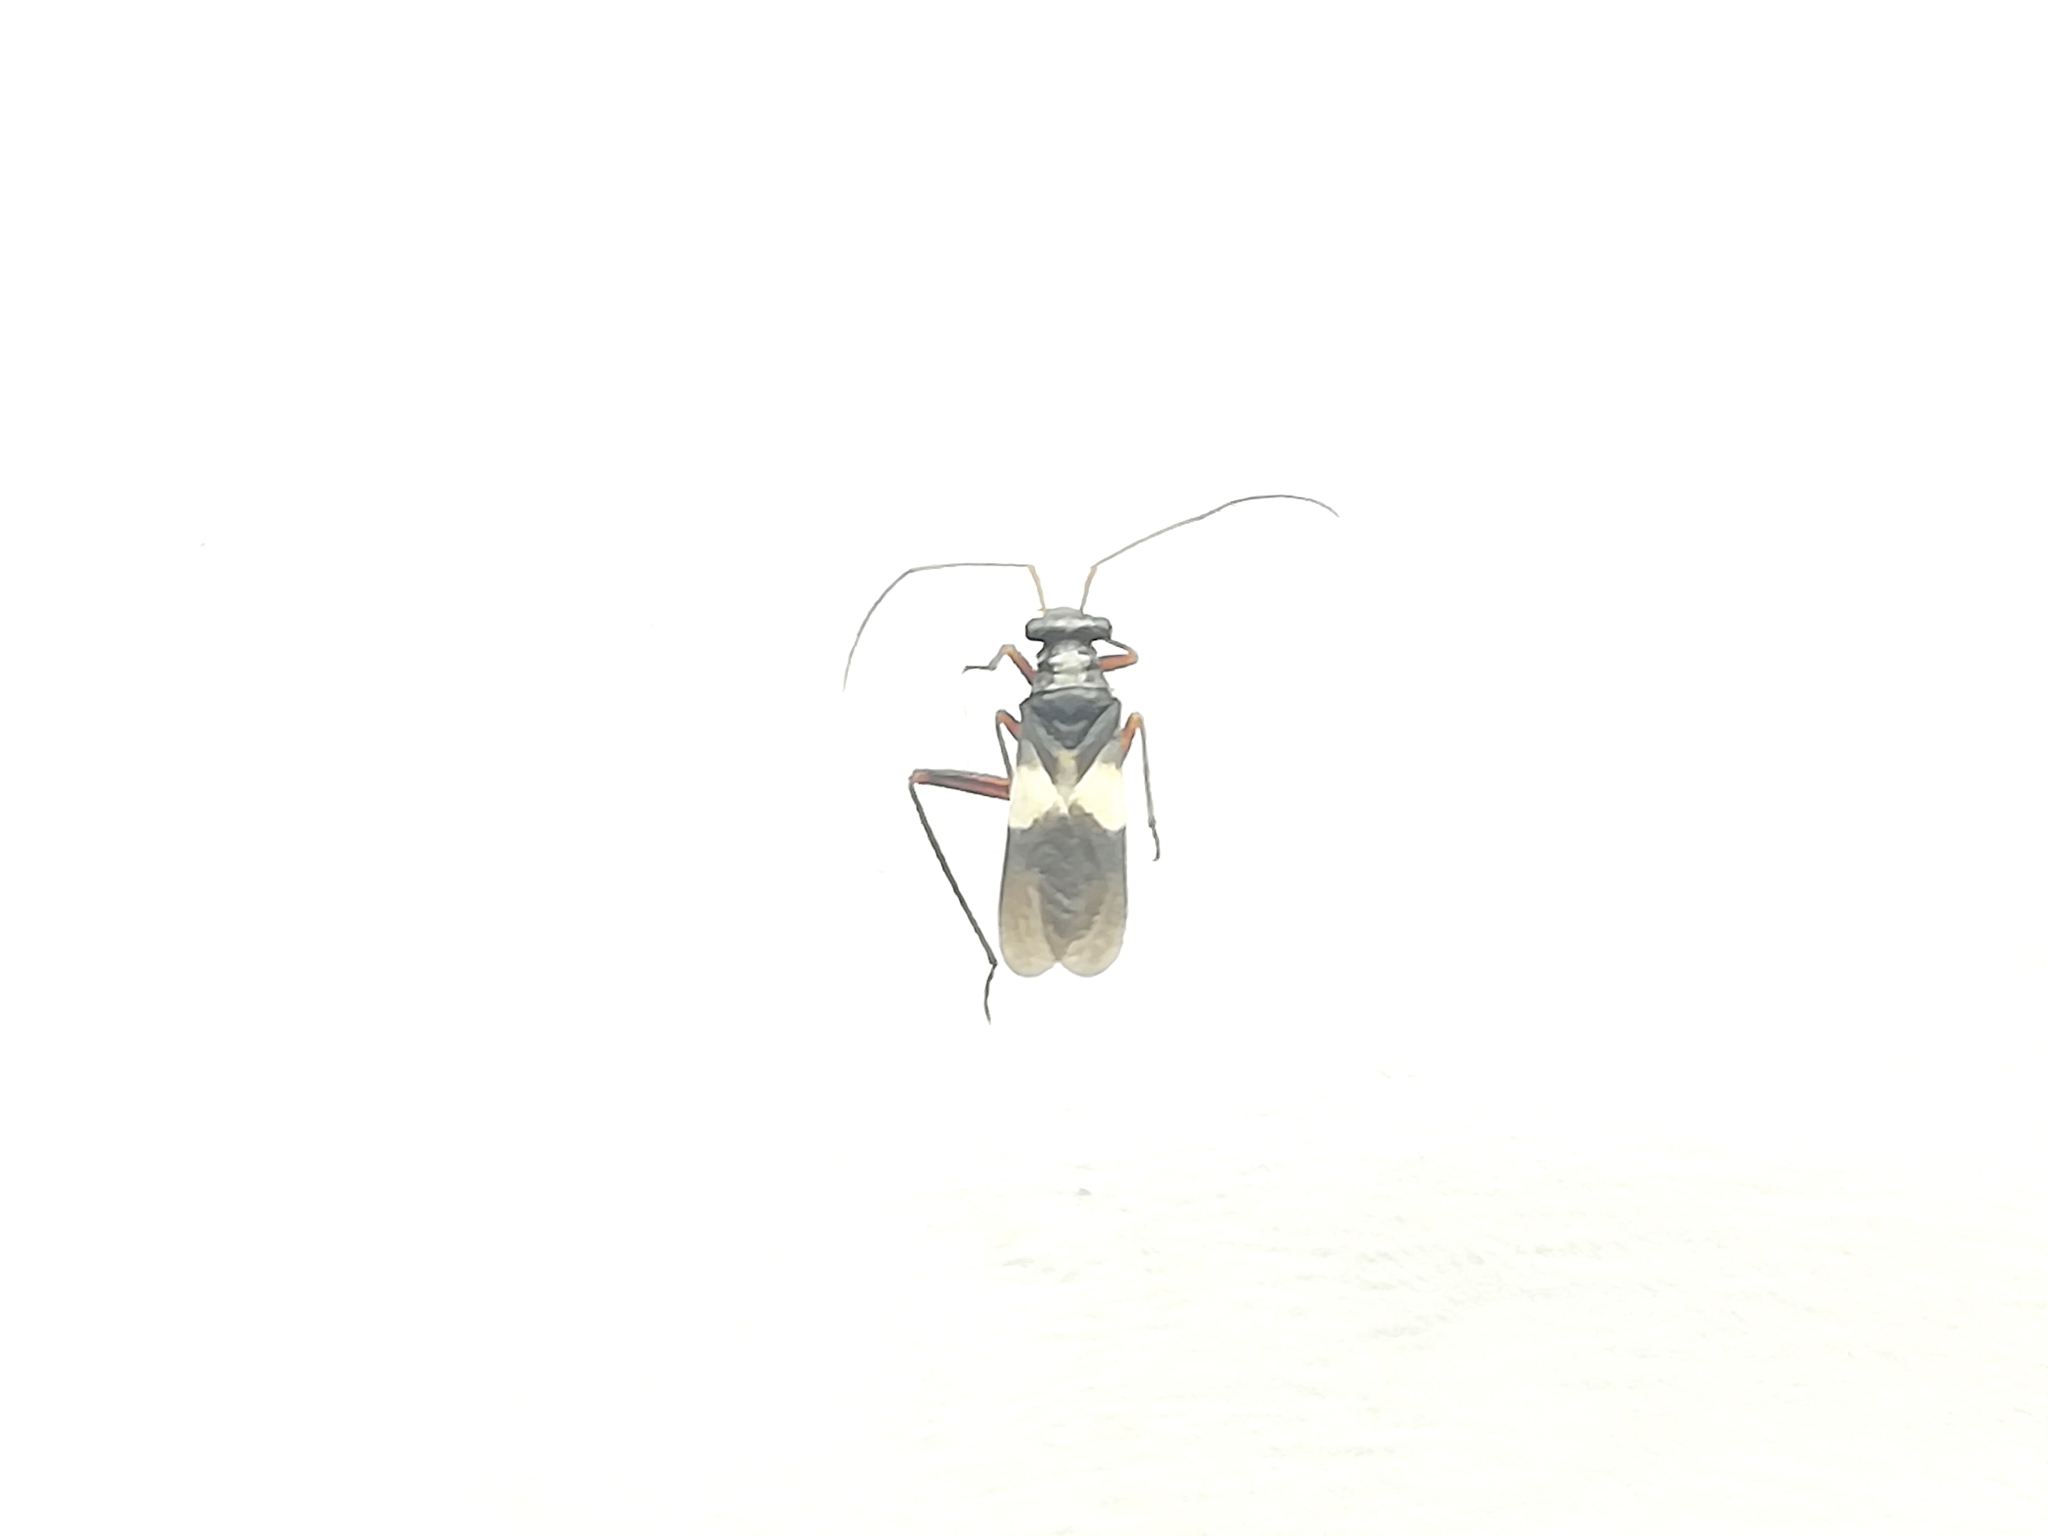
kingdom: Animalia
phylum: Arthropoda
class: Insecta
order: Hemiptera
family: Miridae
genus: Myrmecophyes
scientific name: Myrmecophyes alboornatus
